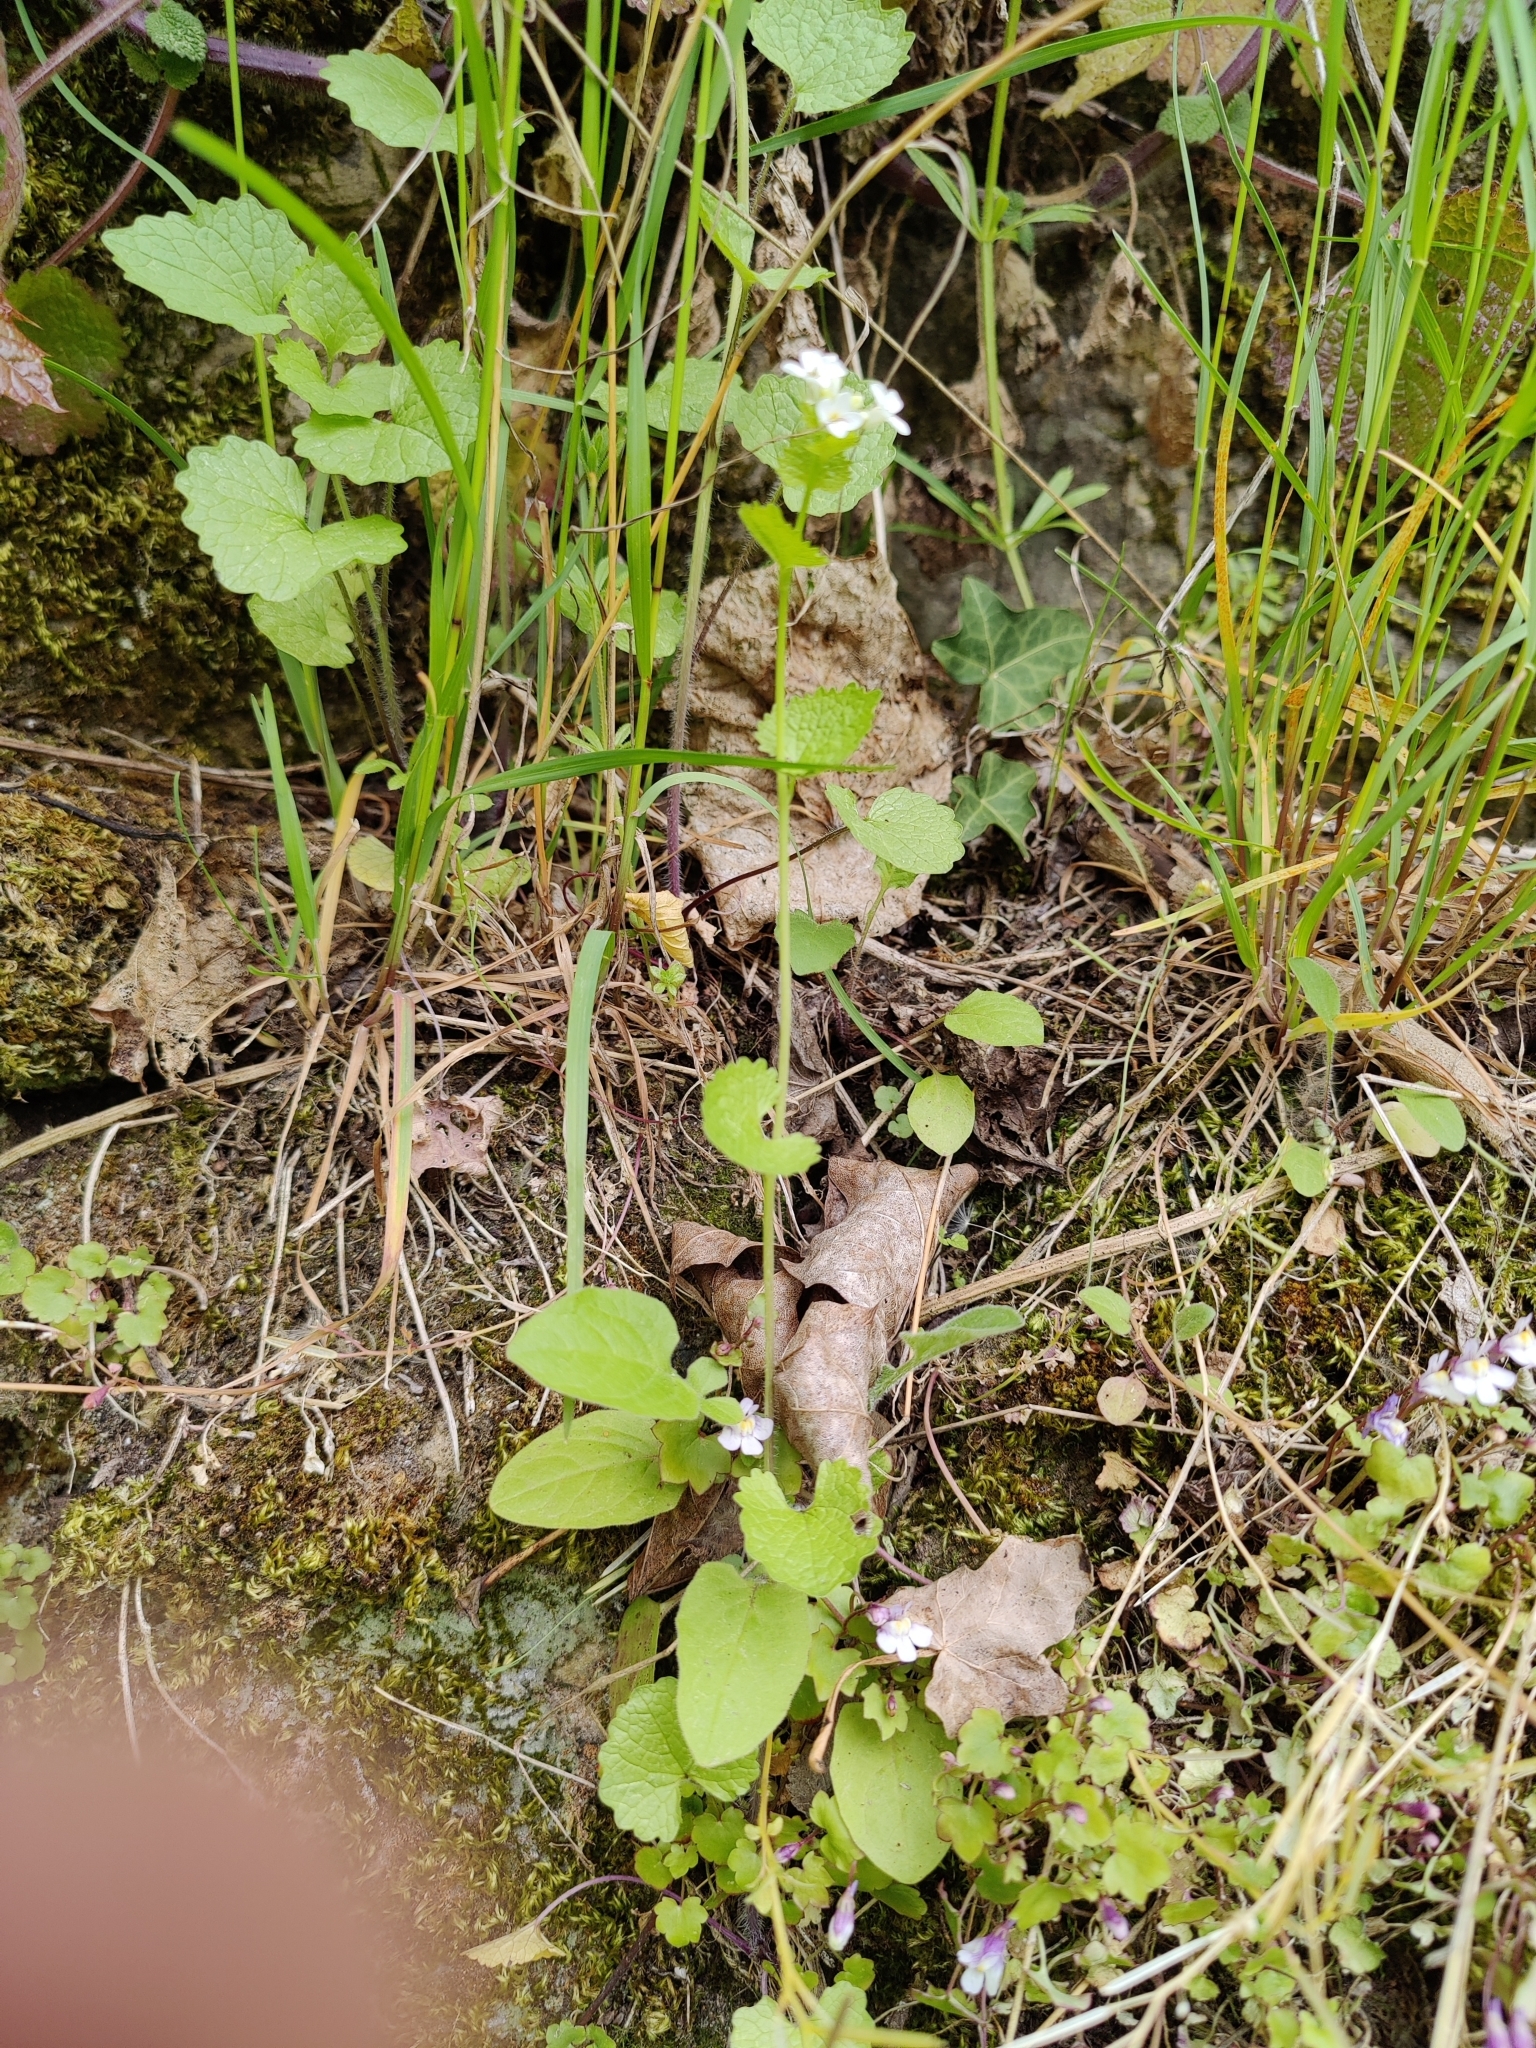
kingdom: Plantae
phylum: Tracheophyta
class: Magnoliopsida
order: Brassicales
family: Brassicaceae
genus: Alliaria
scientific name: Alliaria petiolata
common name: Garlic mustard
